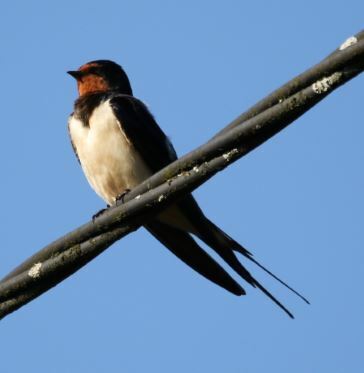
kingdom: Animalia
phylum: Chordata
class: Aves
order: Passeriformes
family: Hirundinidae
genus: Hirundo
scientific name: Hirundo rustica
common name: Barn swallow
